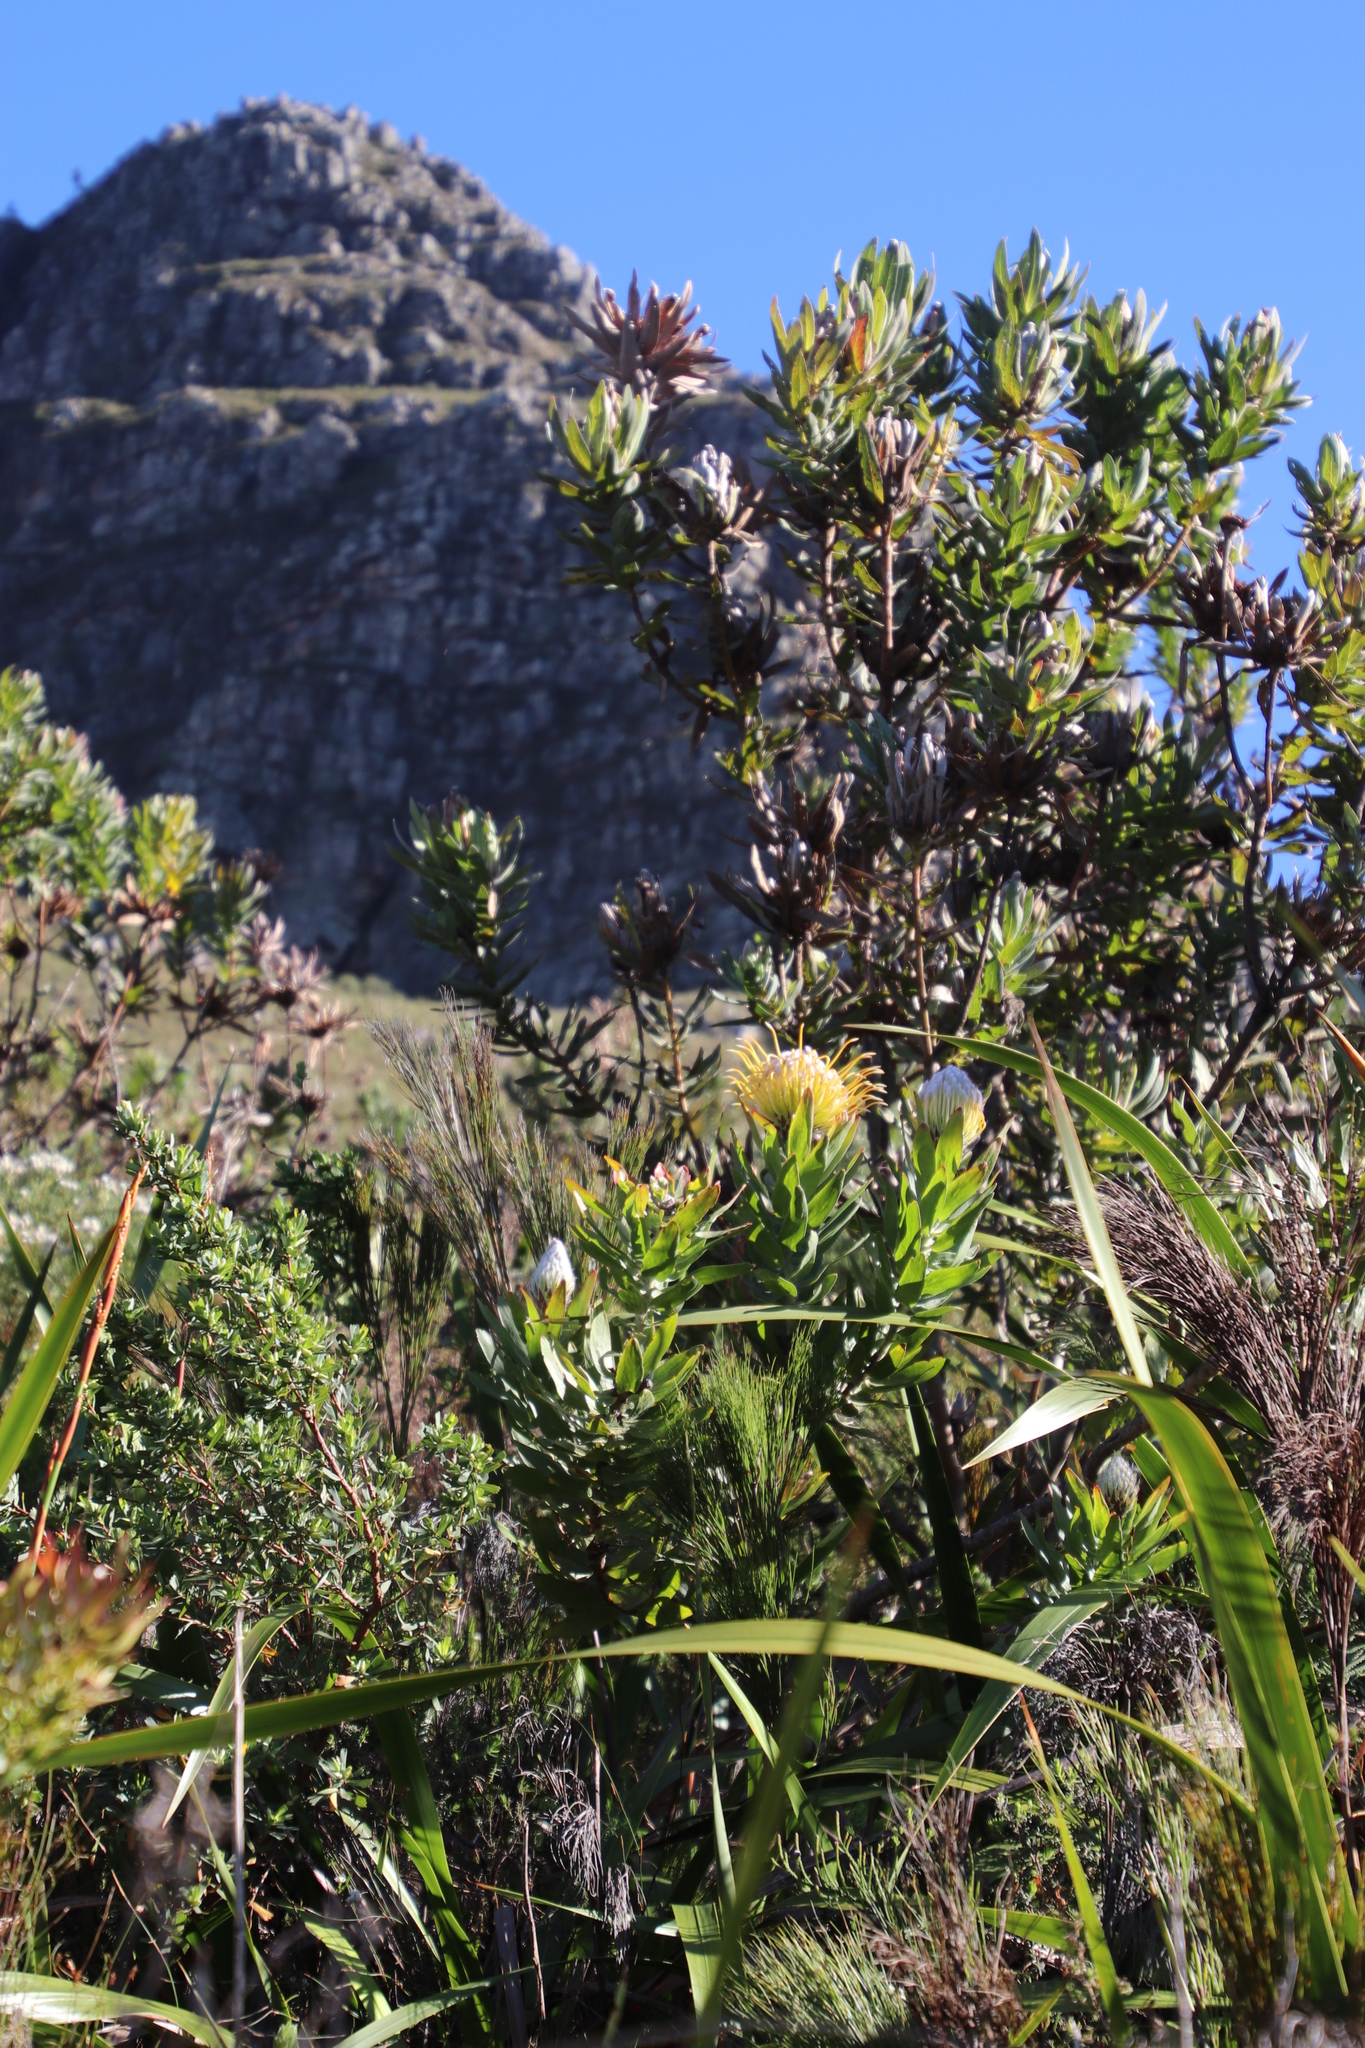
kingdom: Plantae
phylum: Tracheophyta
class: Magnoliopsida
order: Proteales
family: Proteaceae
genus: Leucospermum
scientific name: Leucospermum gueinzii
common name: Kloof fountain pincushion
